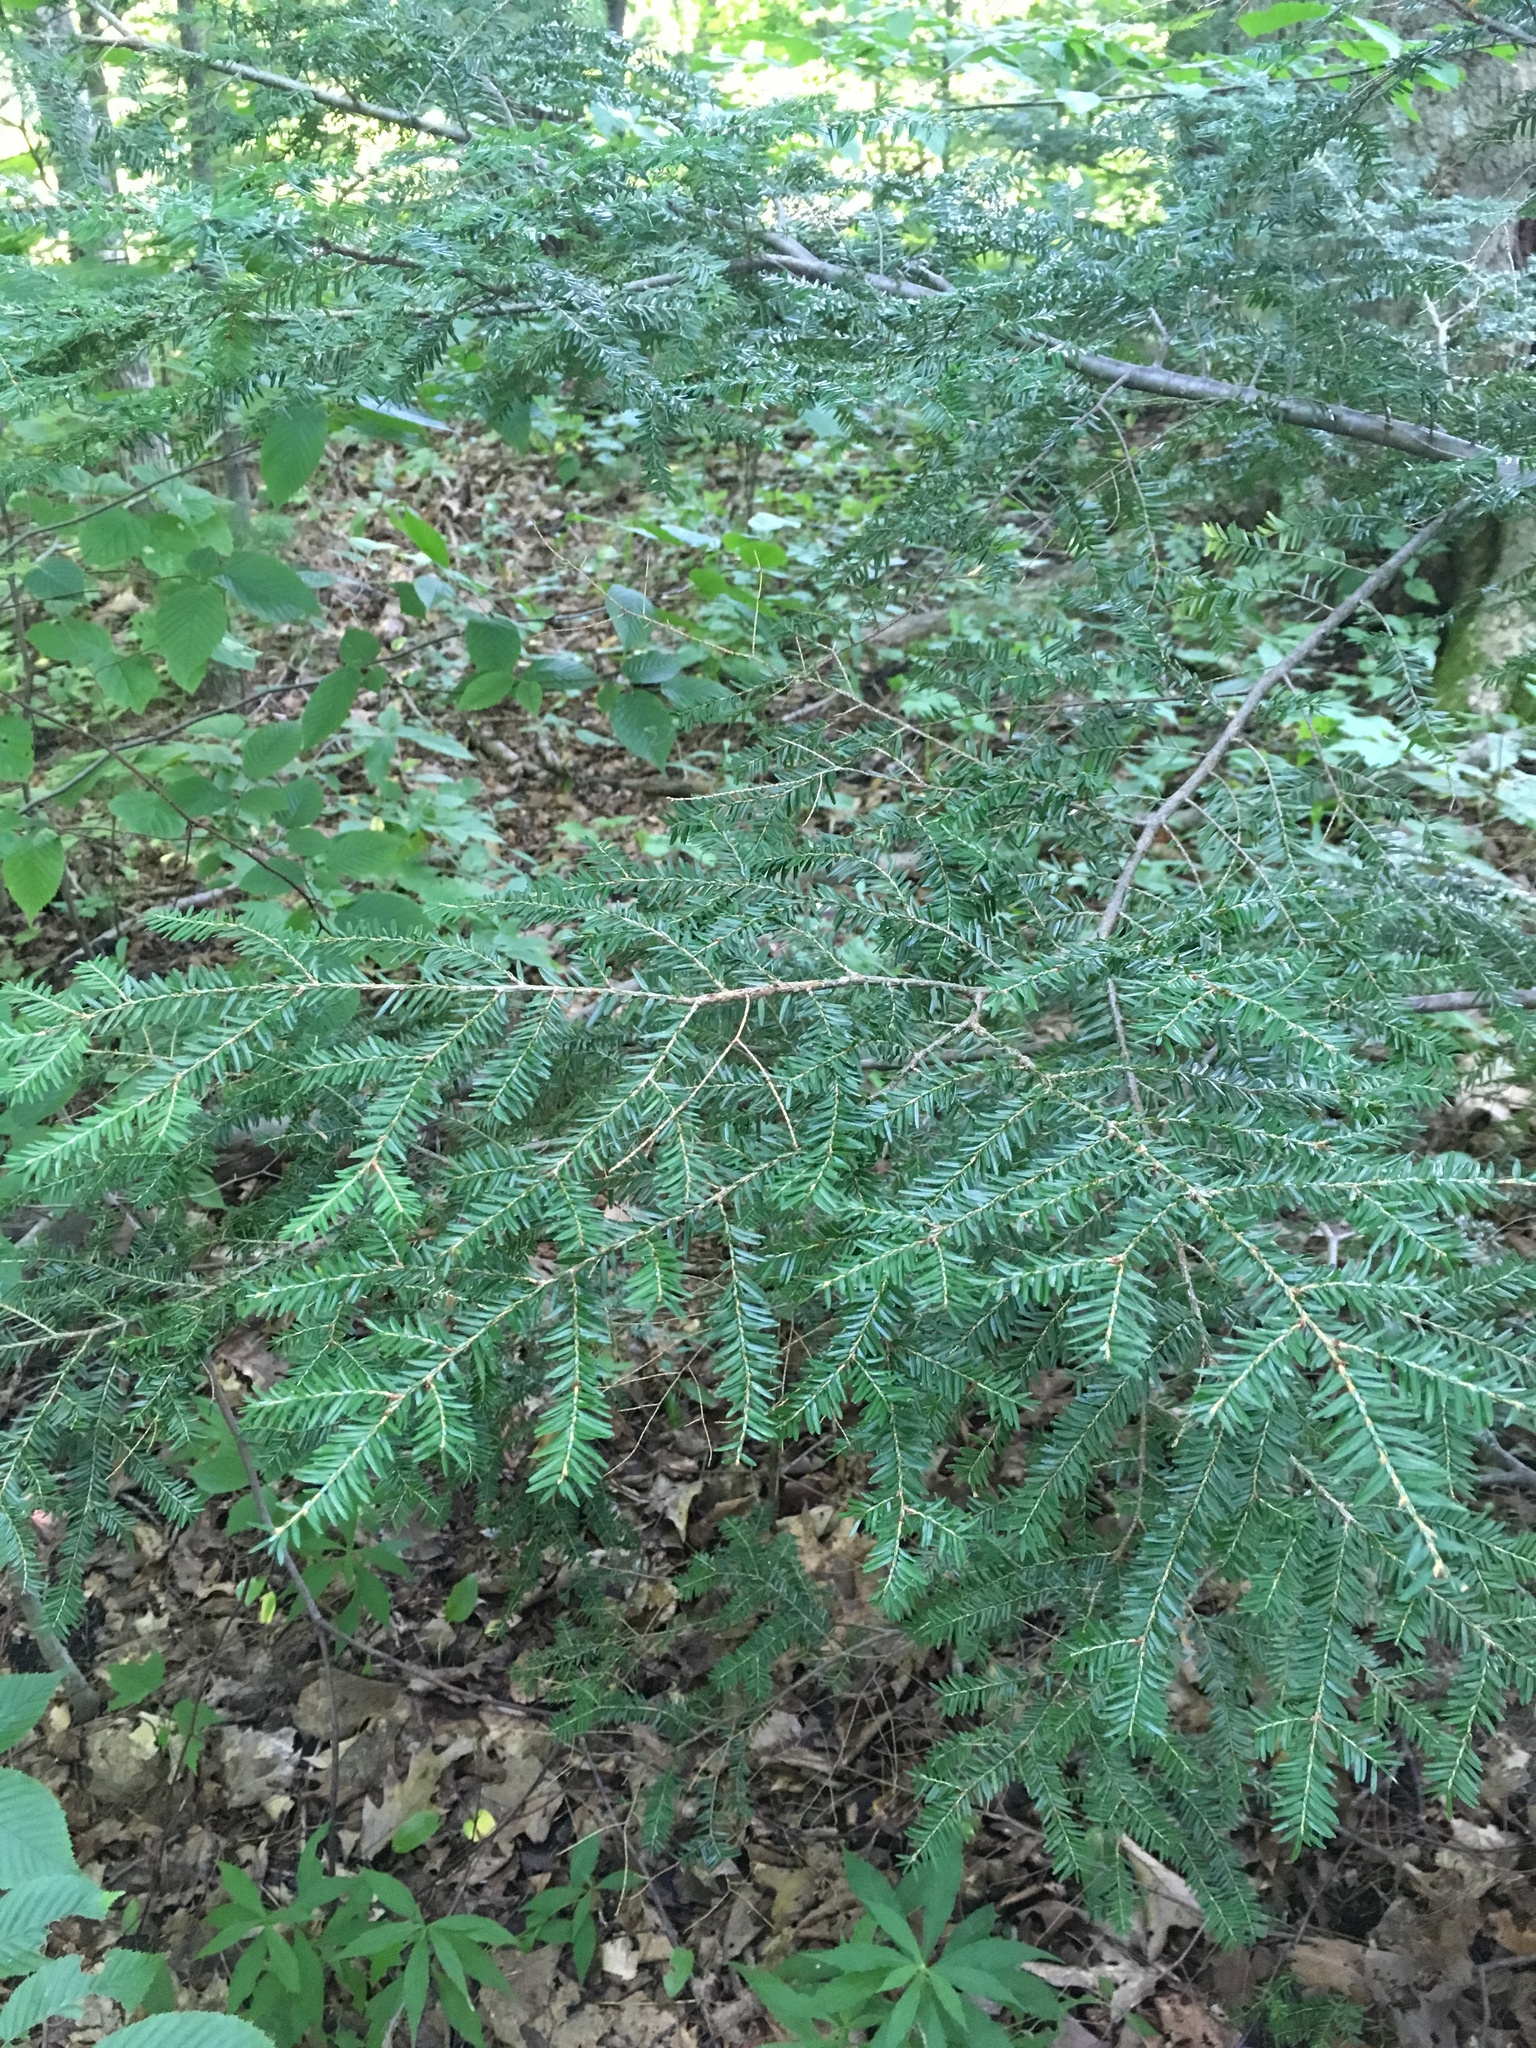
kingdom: Plantae
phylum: Tracheophyta
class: Pinopsida
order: Pinales
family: Pinaceae
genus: Tsuga
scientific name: Tsuga canadensis
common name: Eastern hemlock
